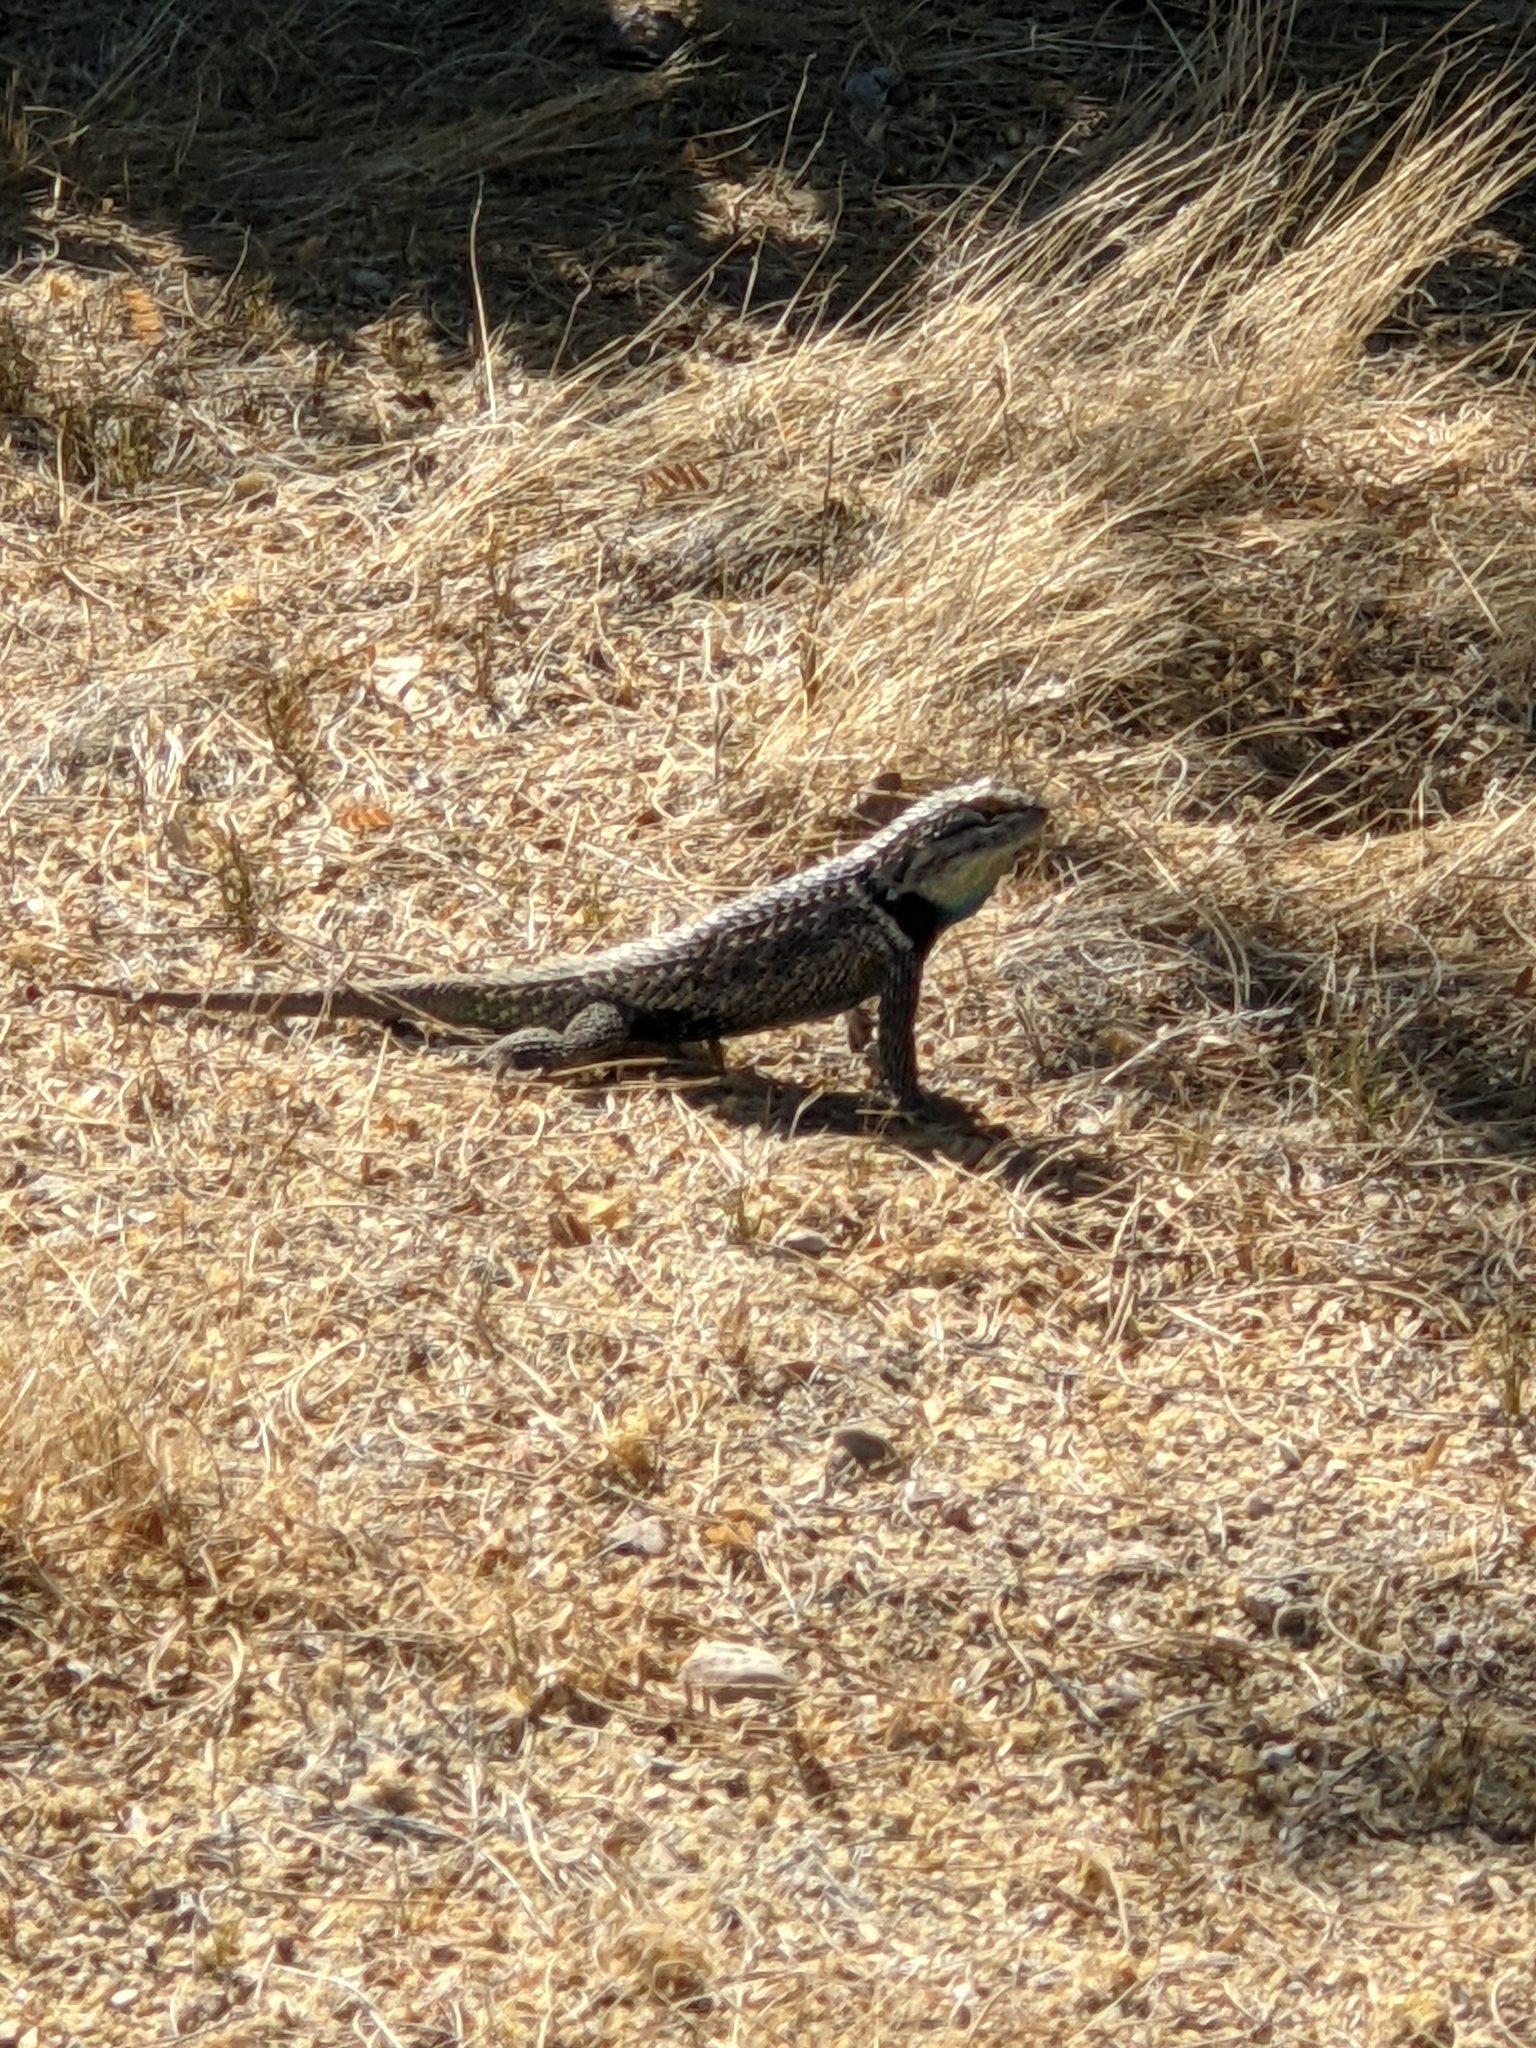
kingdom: Animalia
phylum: Chordata
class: Squamata
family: Phrynosomatidae
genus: Sceloporus
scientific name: Sceloporus magister
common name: Desert spiny lizard
